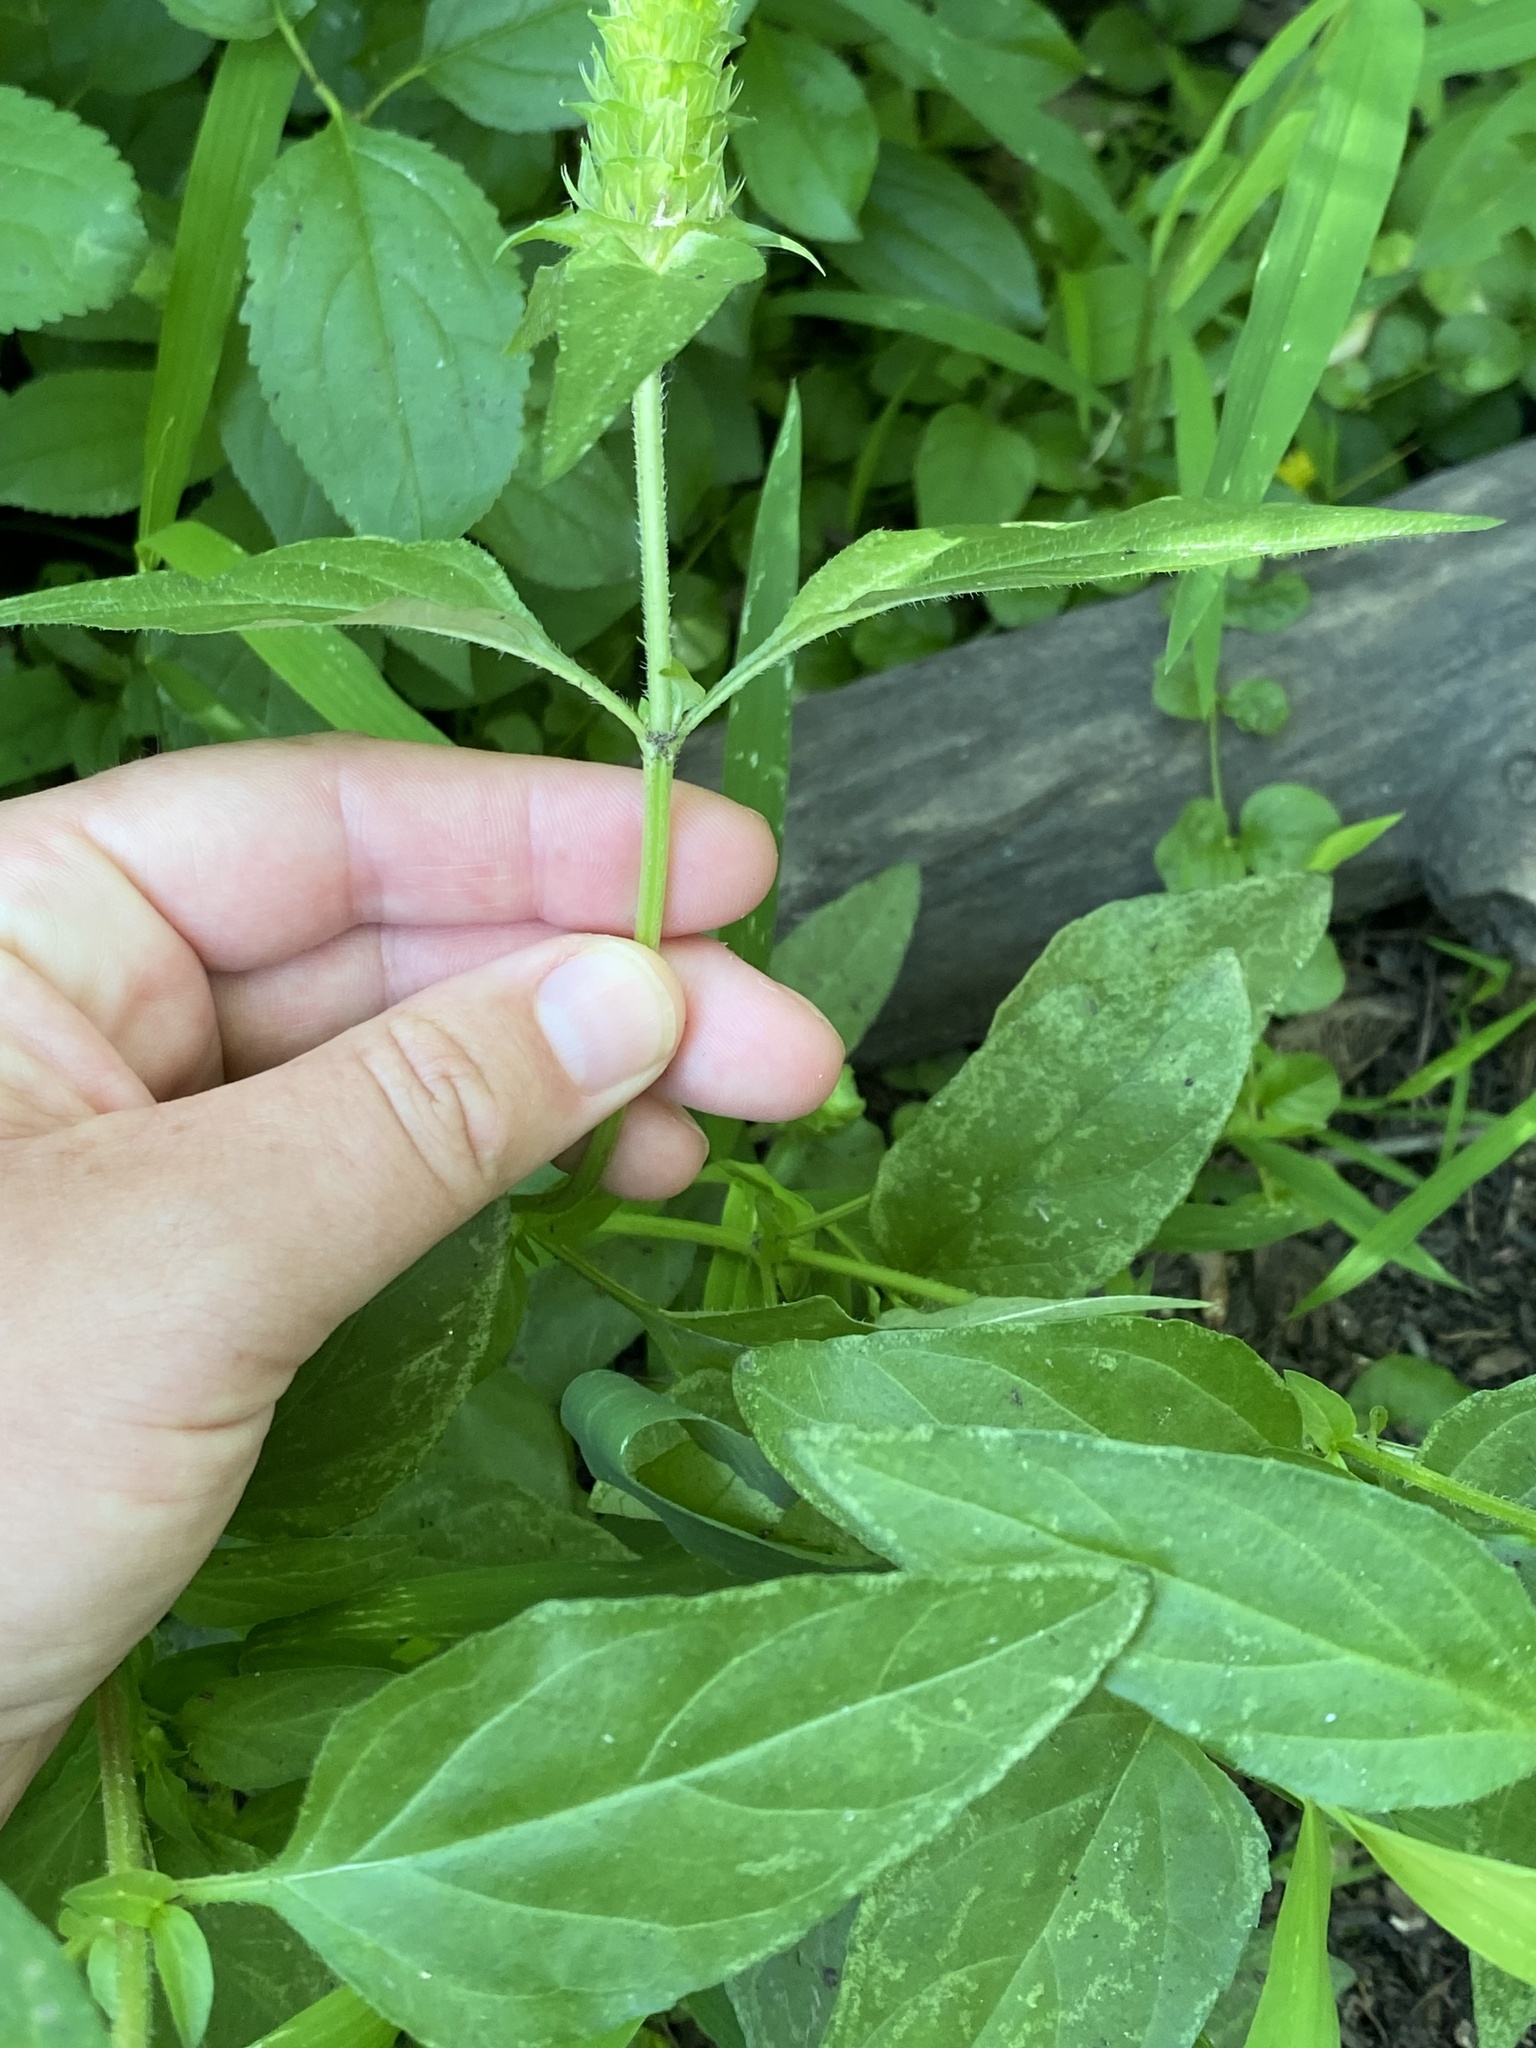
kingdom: Plantae
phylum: Tracheophyta
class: Magnoliopsida
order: Lamiales
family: Lamiaceae
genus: Prunella
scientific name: Prunella vulgaris
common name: Heal-all
